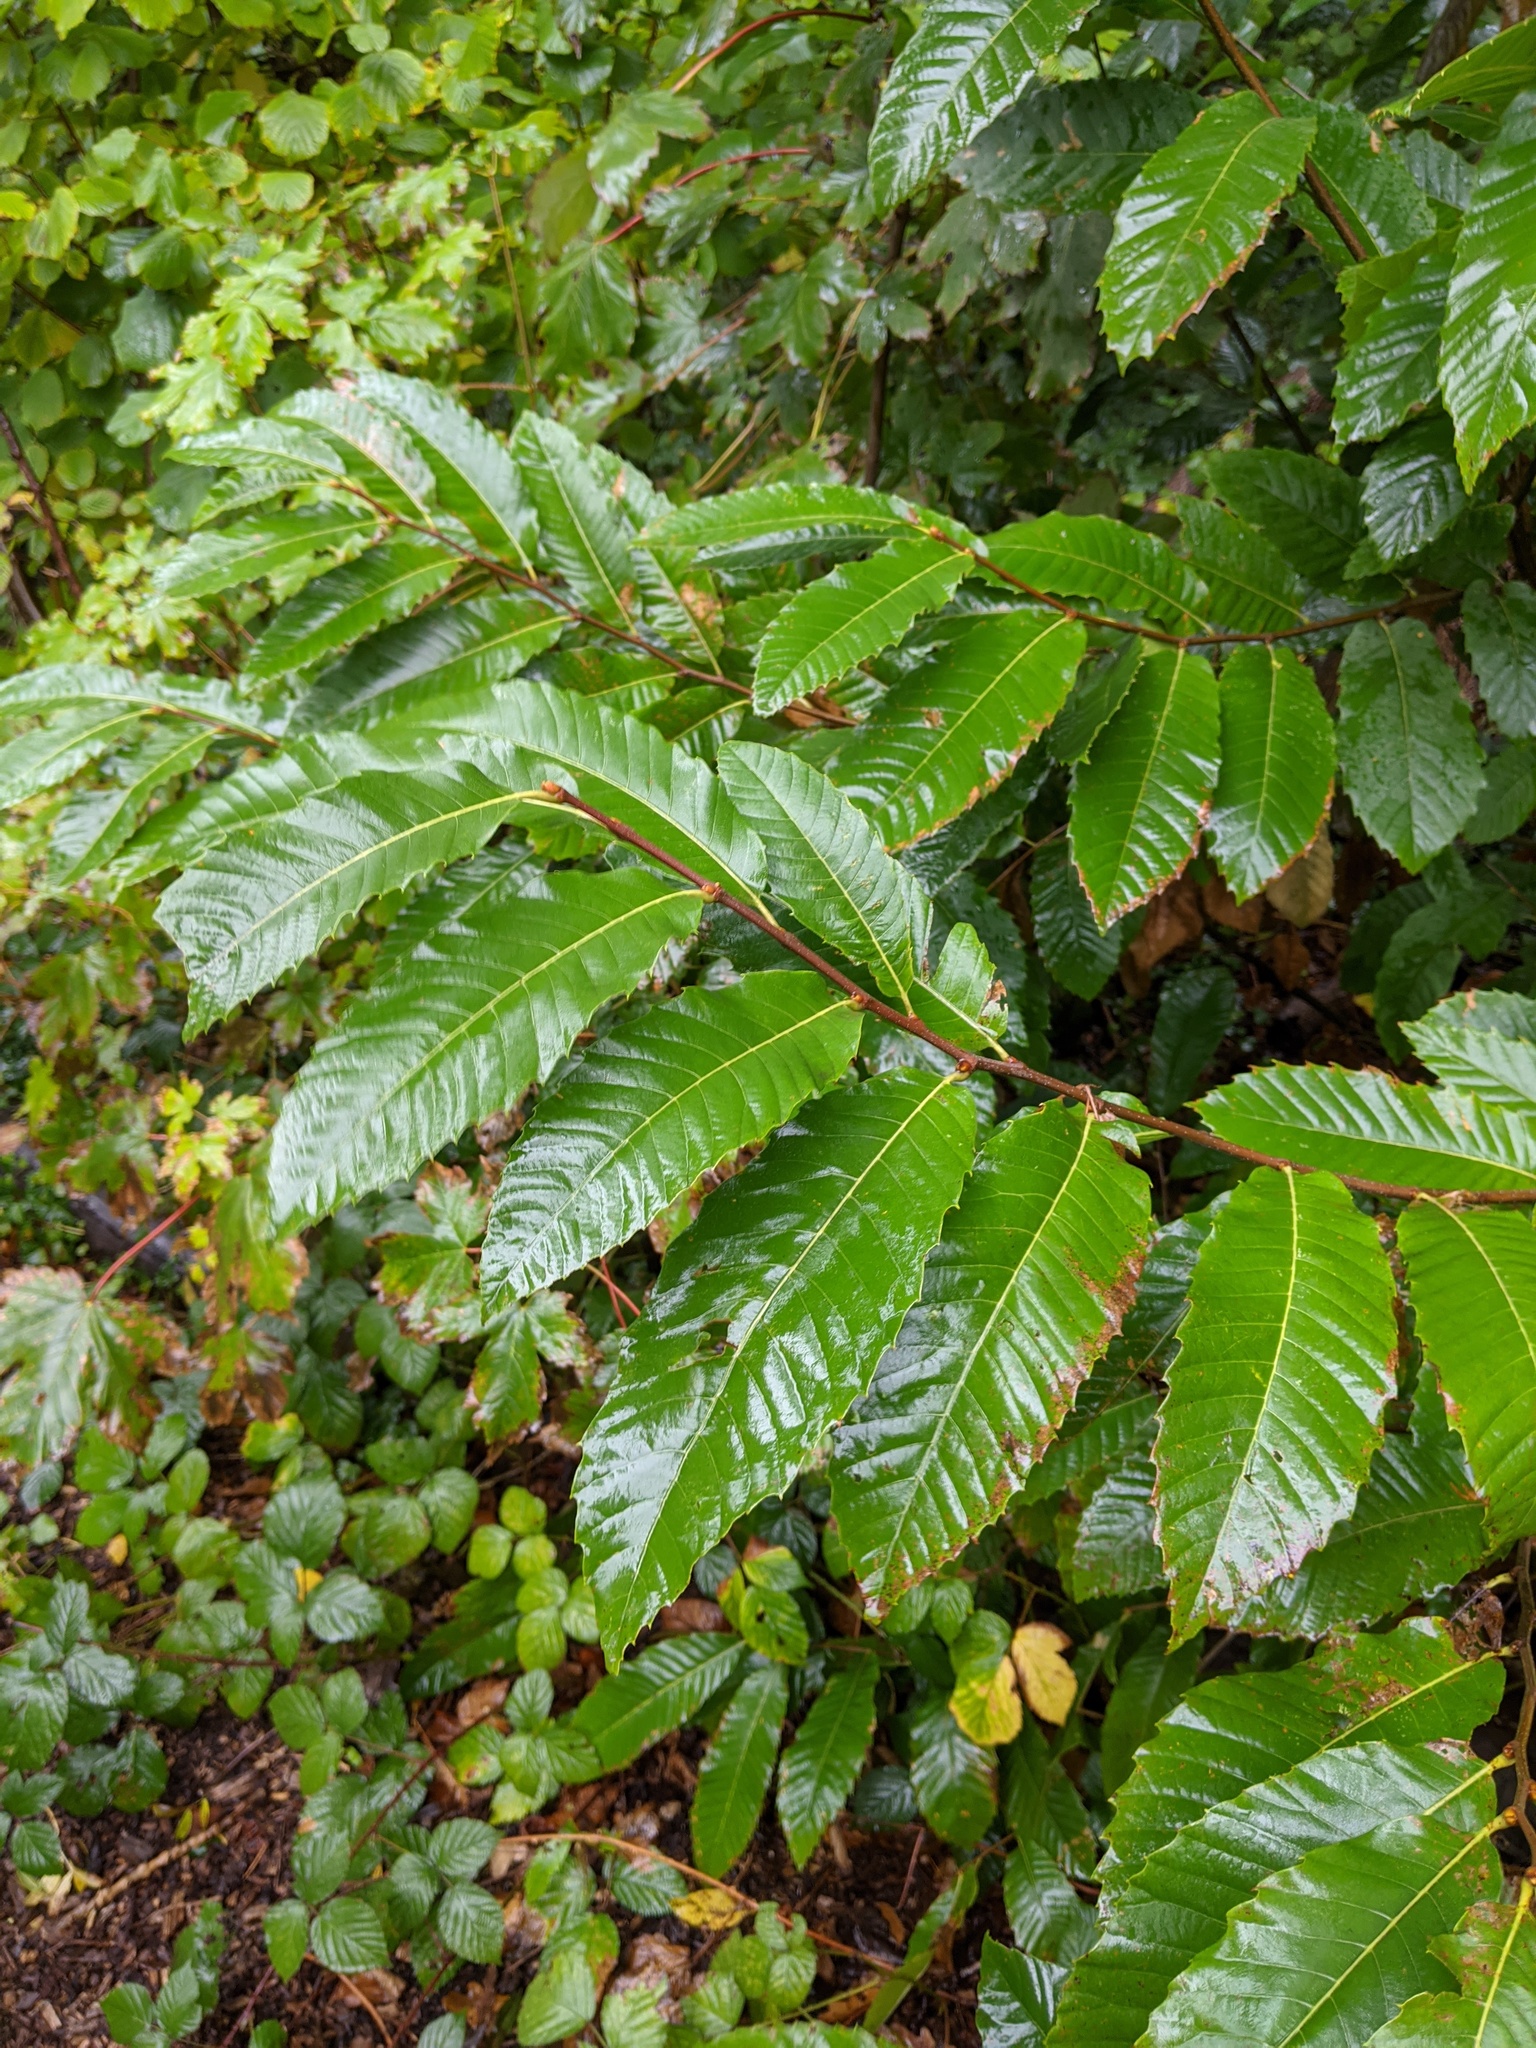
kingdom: Plantae
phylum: Tracheophyta
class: Magnoliopsida
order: Fagales
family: Fagaceae
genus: Castanea
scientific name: Castanea sativa
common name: Sweet chestnut
